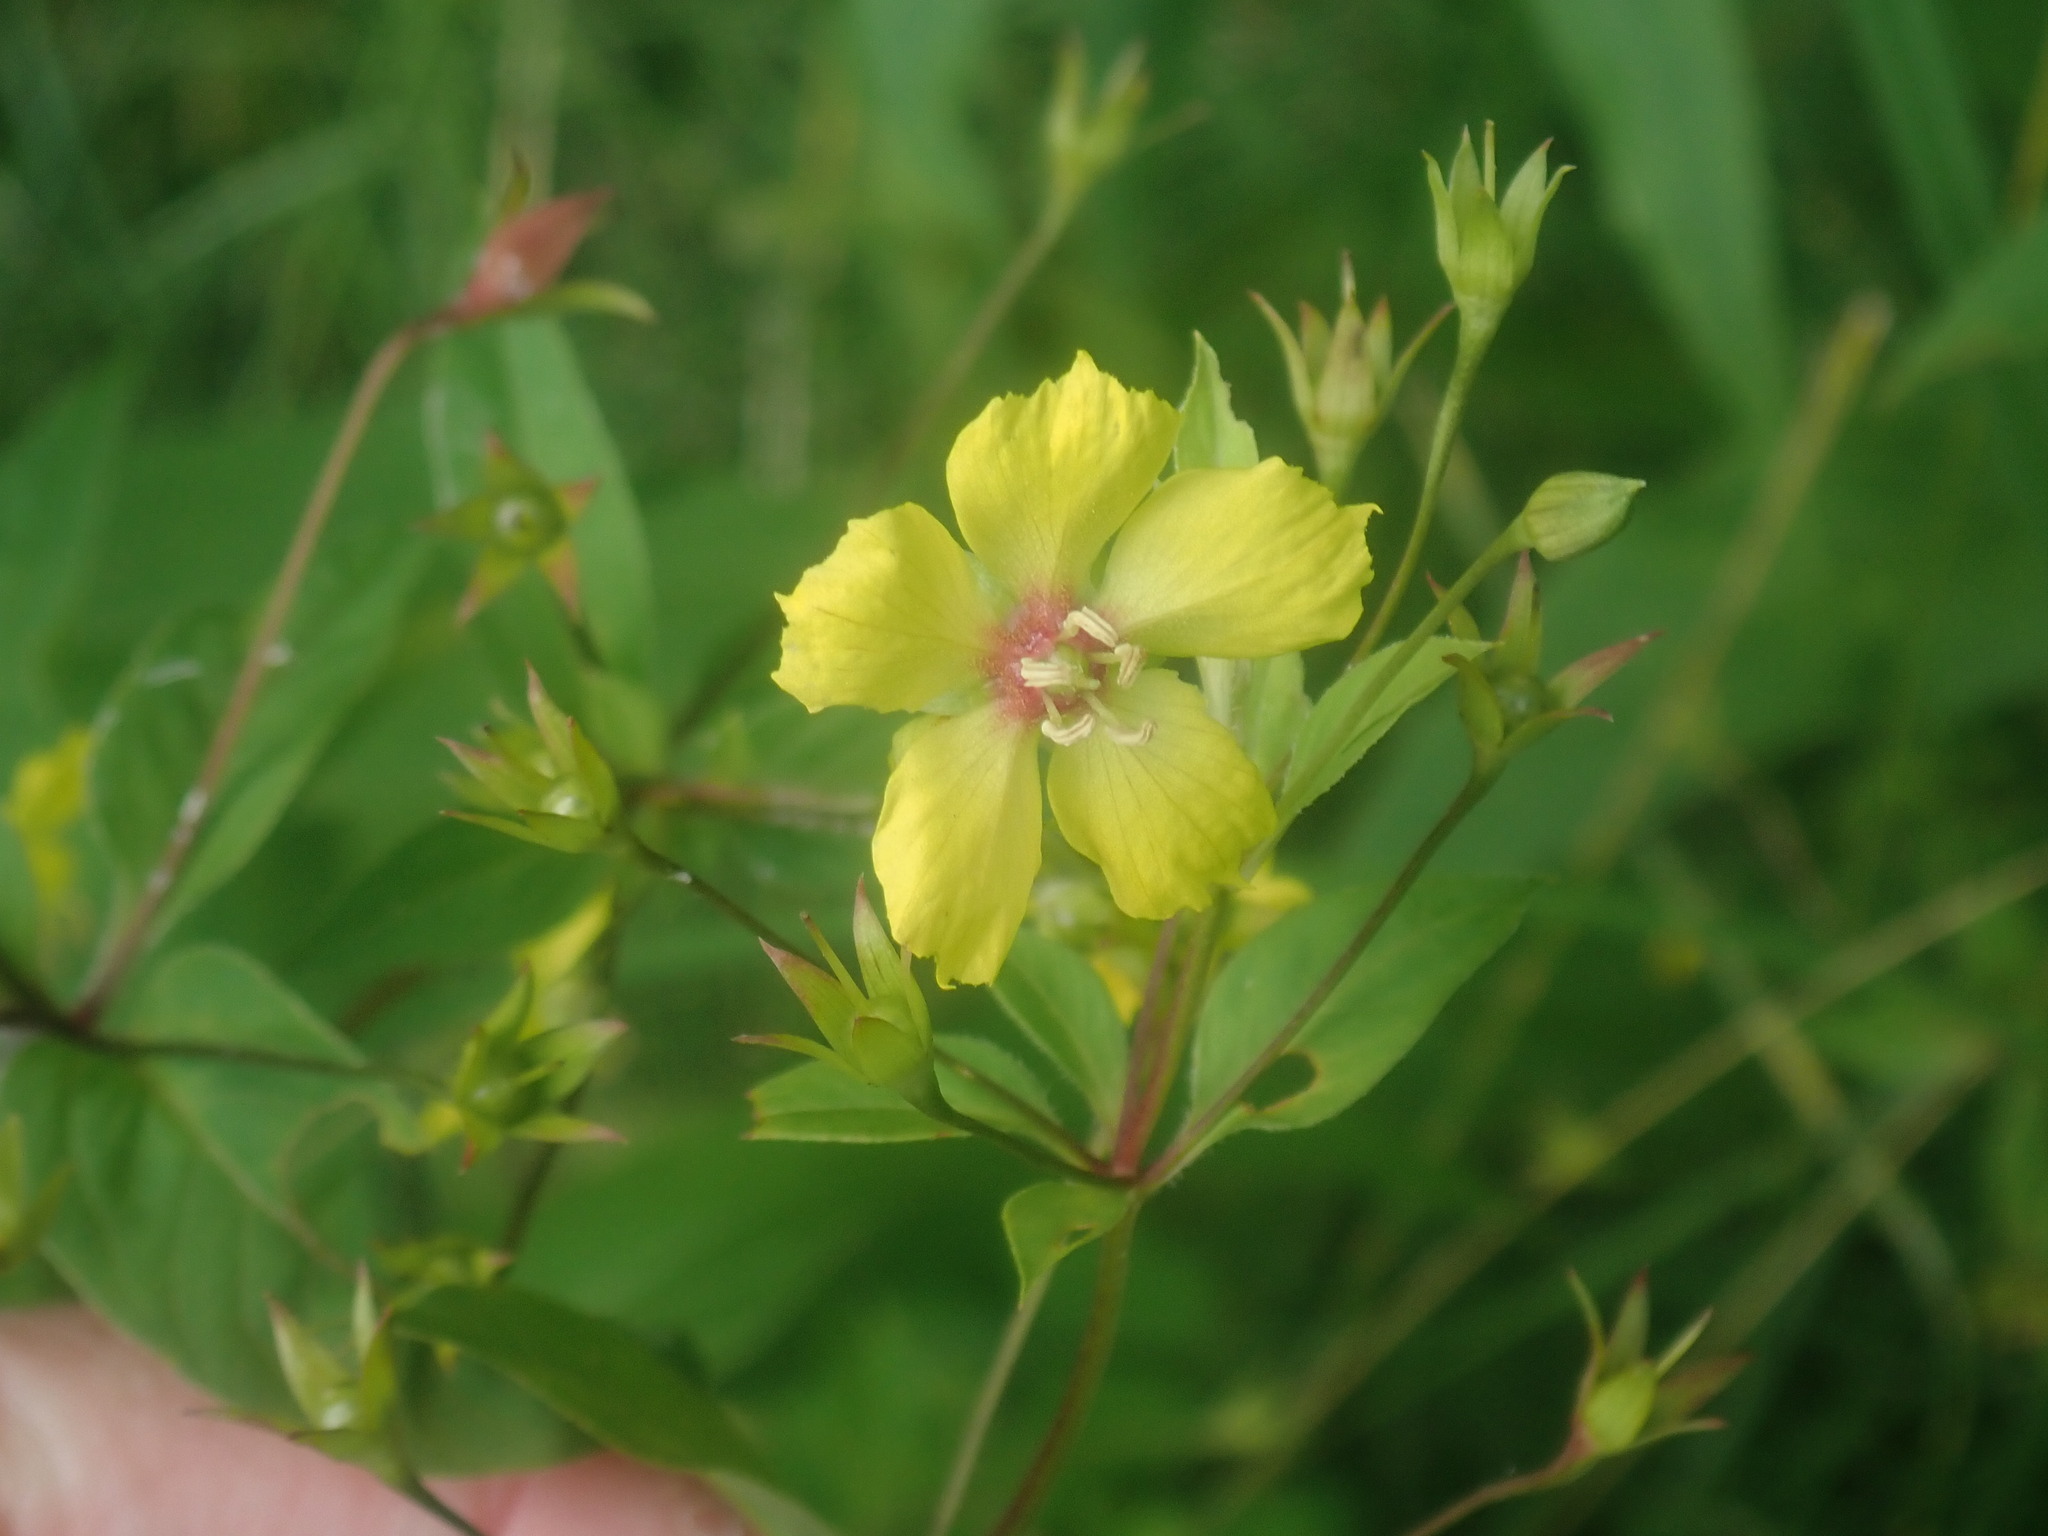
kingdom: Plantae
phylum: Tracheophyta
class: Magnoliopsida
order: Ericales
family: Primulaceae
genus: Lysimachia
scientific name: Lysimachia ciliata
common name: Fringed loosestrife
